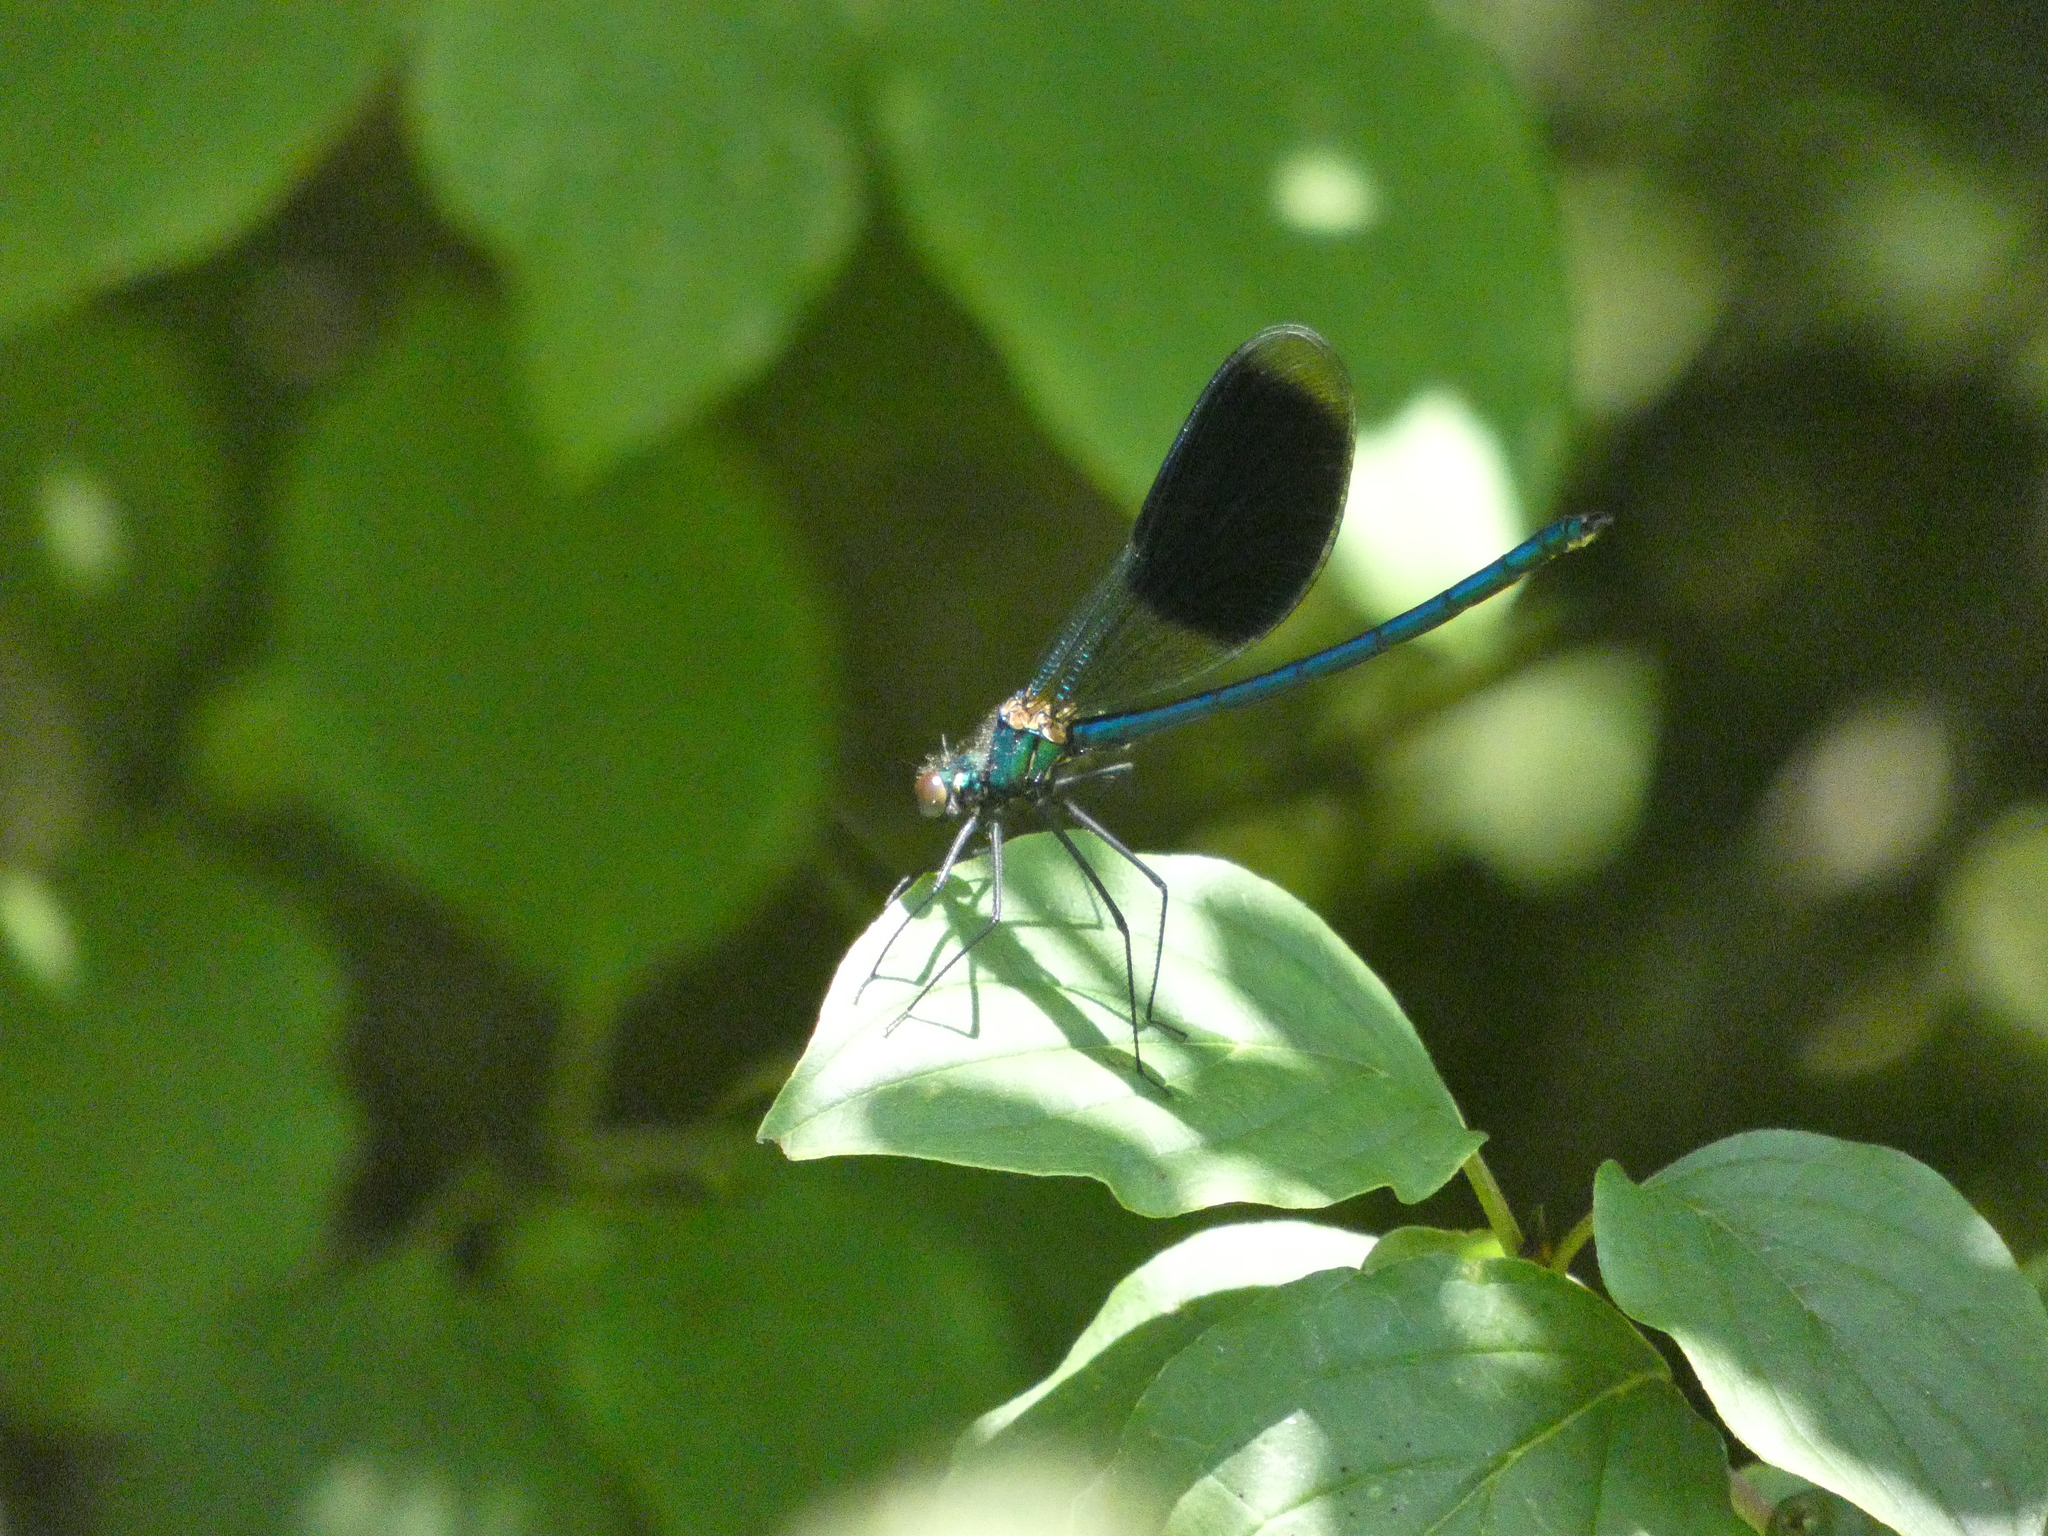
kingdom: Animalia
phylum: Arthropoda
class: Insecta
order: Odonata
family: Calopterygidae
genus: Calopteryx
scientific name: Calopteryx splendens
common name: Banded demoiselle
